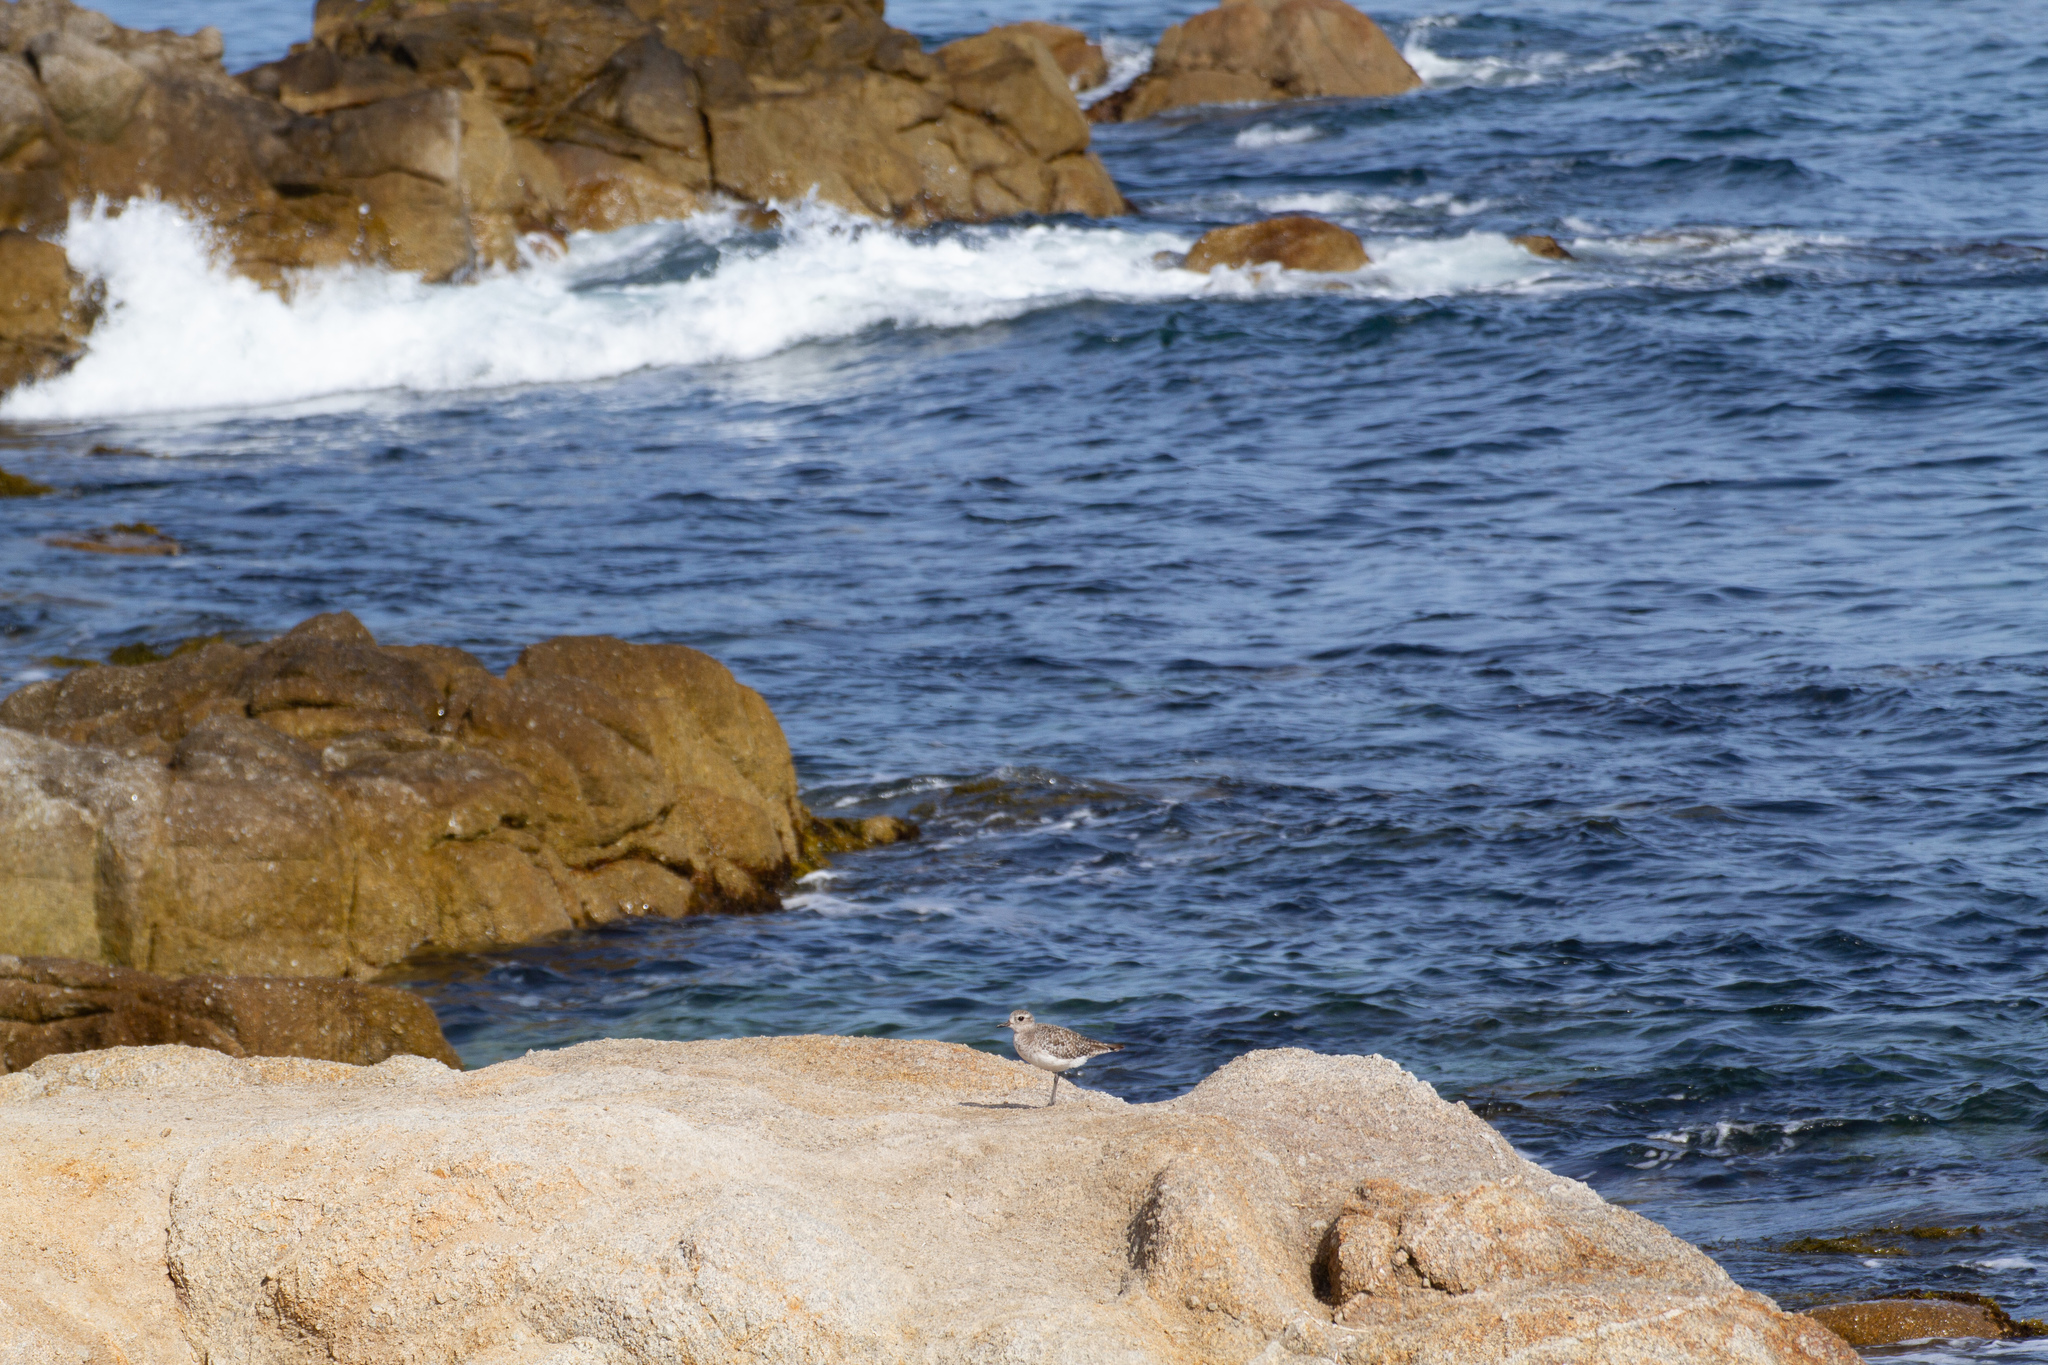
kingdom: Animalia
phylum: Chordata
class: Aves
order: Charadriiformes
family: Charadriidae
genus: Pluvialis
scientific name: Pluvialis squatarola
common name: Grey plover
